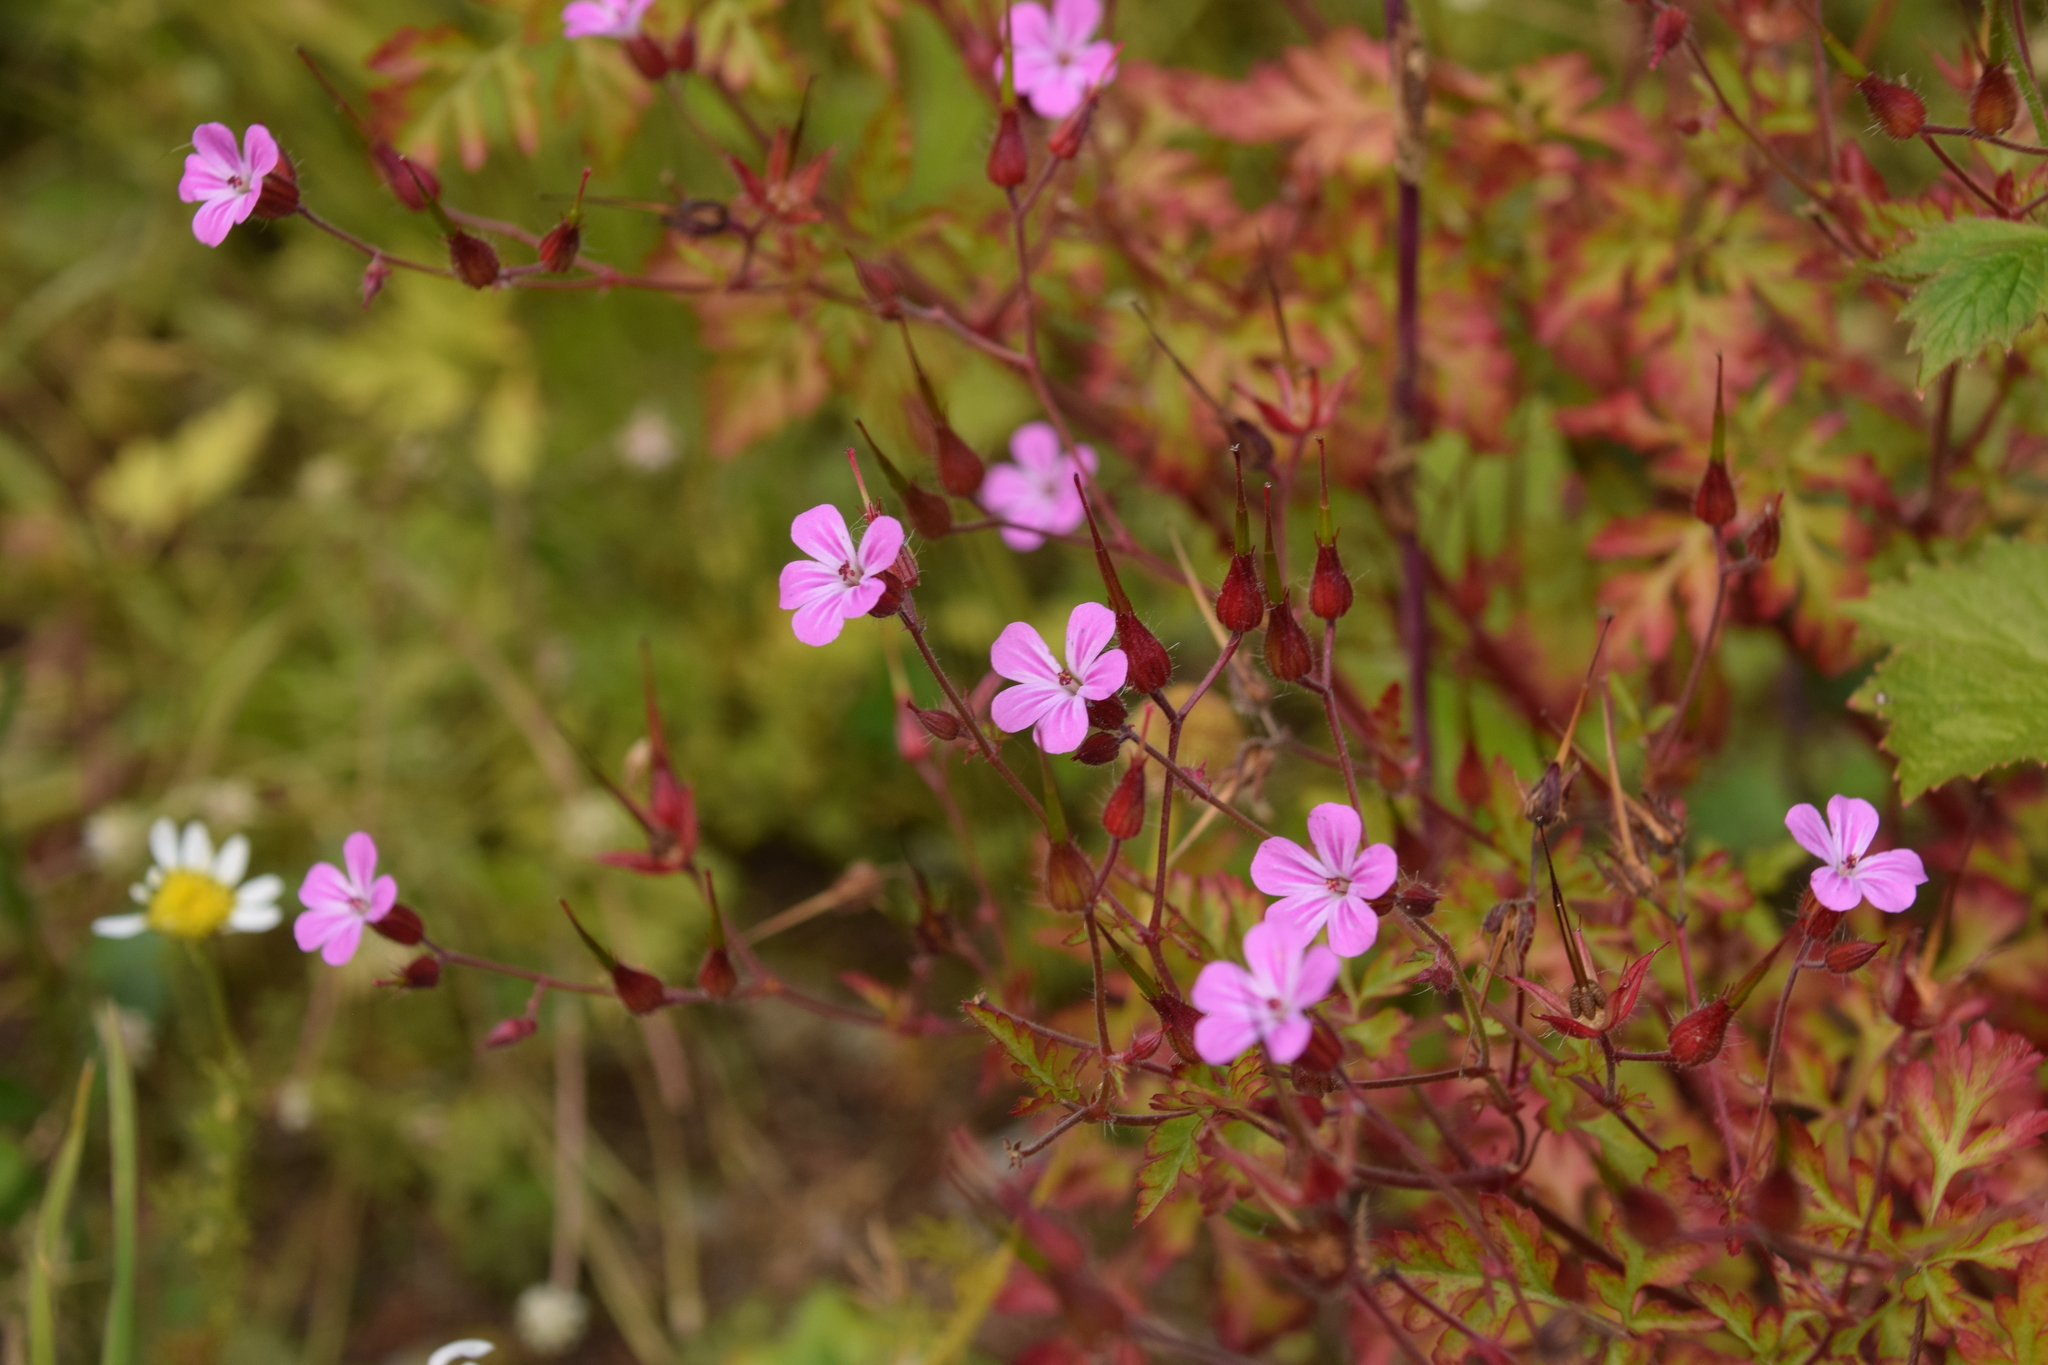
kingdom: Plantae
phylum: Tracheophyta
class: Magnoliopsida
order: Geraniales
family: Geraniaceae
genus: Geranium
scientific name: Geranium robertianum
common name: Herb-robert
